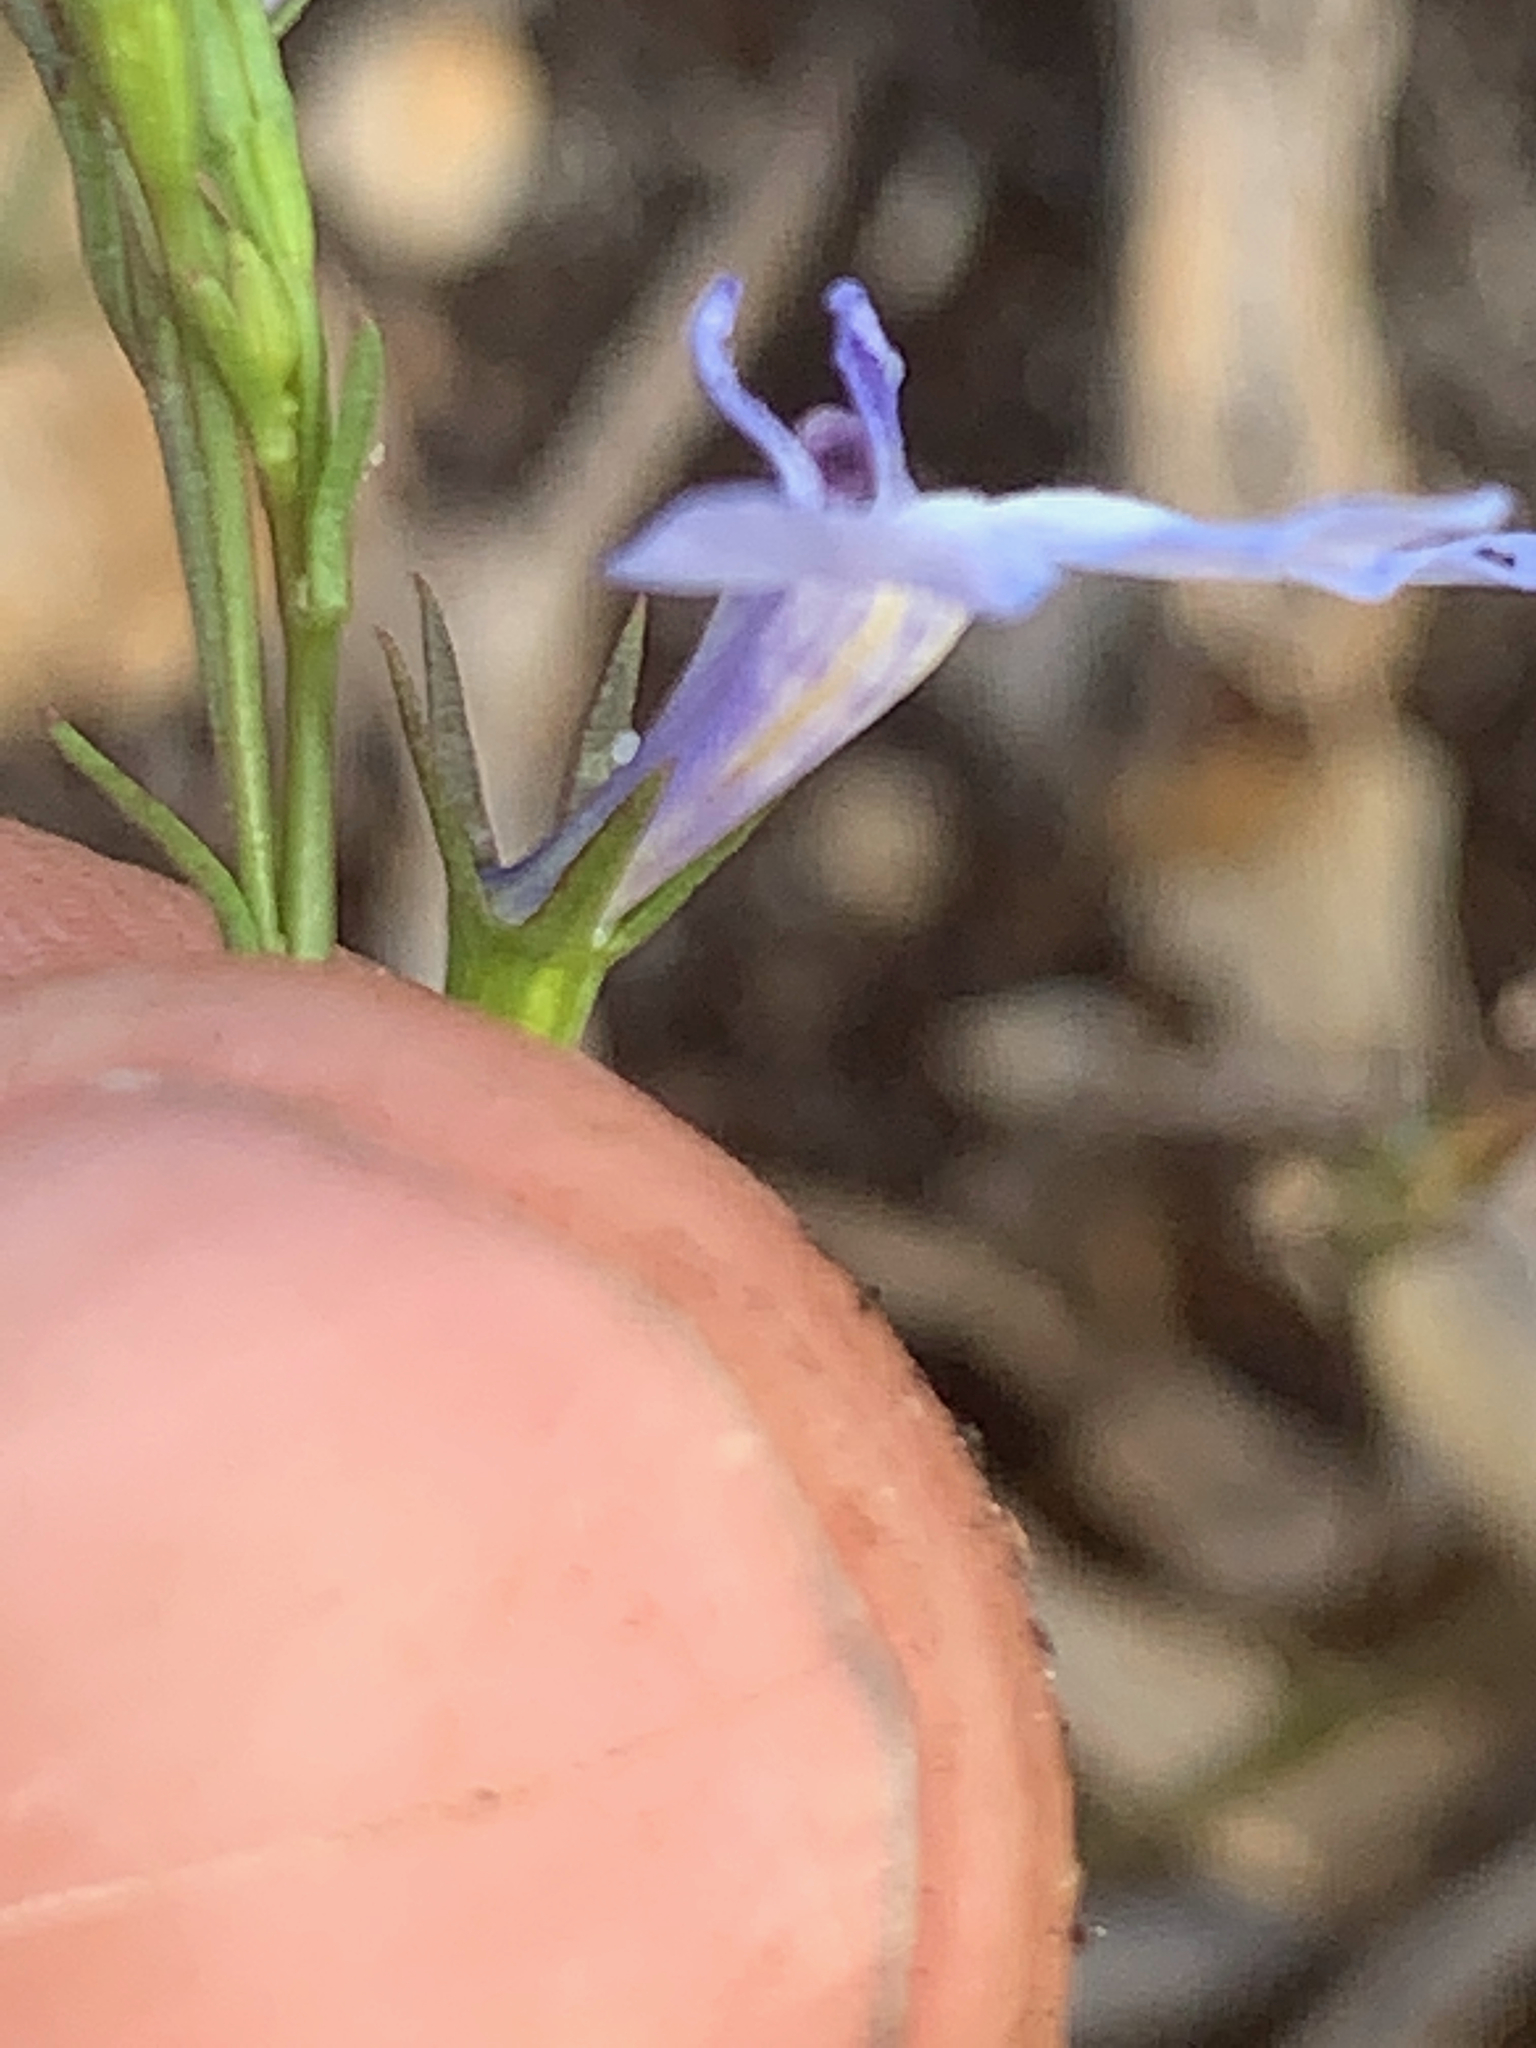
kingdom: Plantae
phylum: Tracheophyta
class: Magnoliopsida
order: Asterales
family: Campanulaceae
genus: Lobelia
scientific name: Lobelia erinus
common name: Edging lobelia
